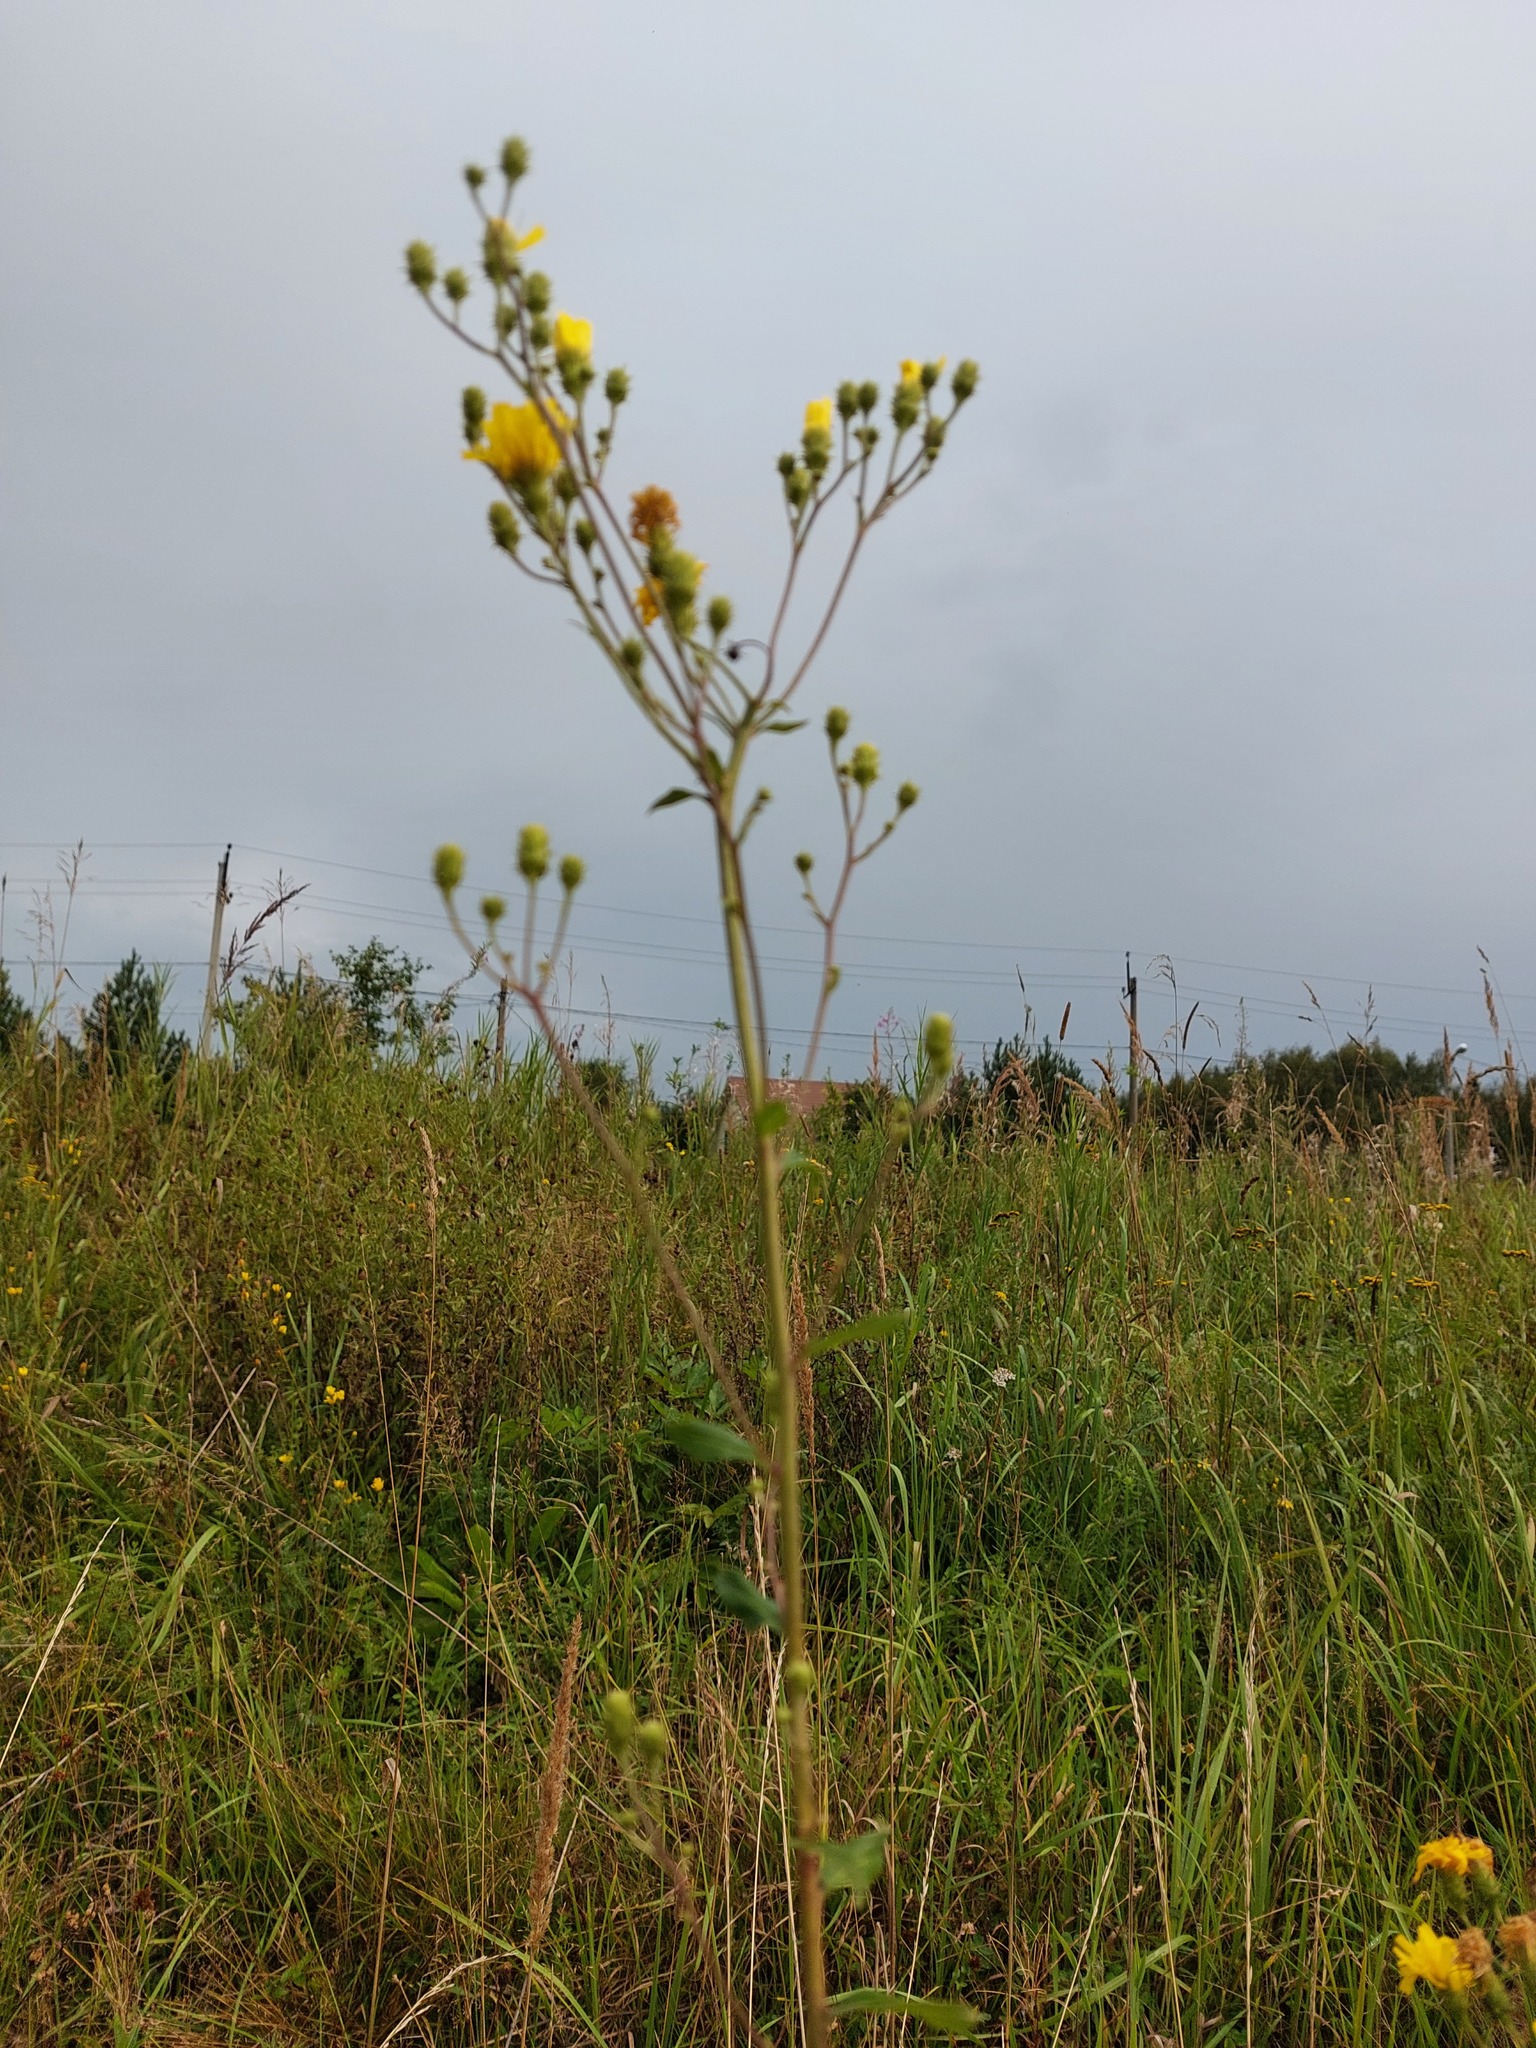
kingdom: Plantae
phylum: Tracheophyta
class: Magnoliopsida
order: Asterales
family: Asteraceae
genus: Hieracium
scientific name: Hieracium umbellatum
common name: Northern hawkweed
